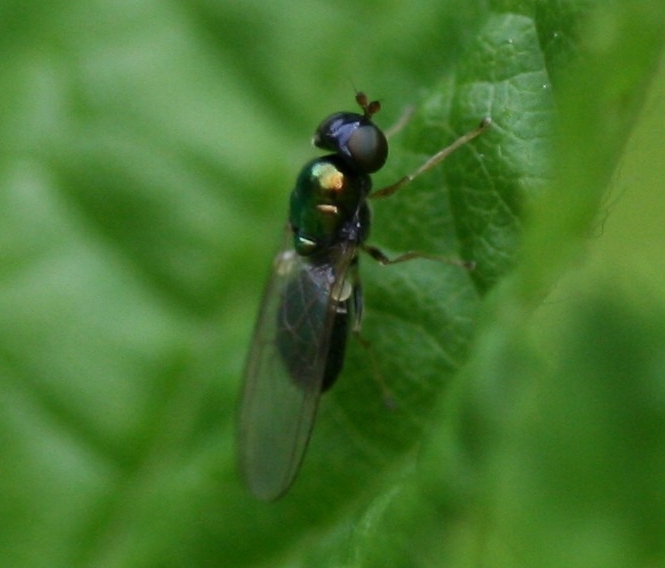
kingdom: Animalia
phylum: Arthropoda
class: Insecta
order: Diptera
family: Stratiomyidae
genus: Microchrysa
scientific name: Microchrysa cyaneiventris
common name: Black gem
